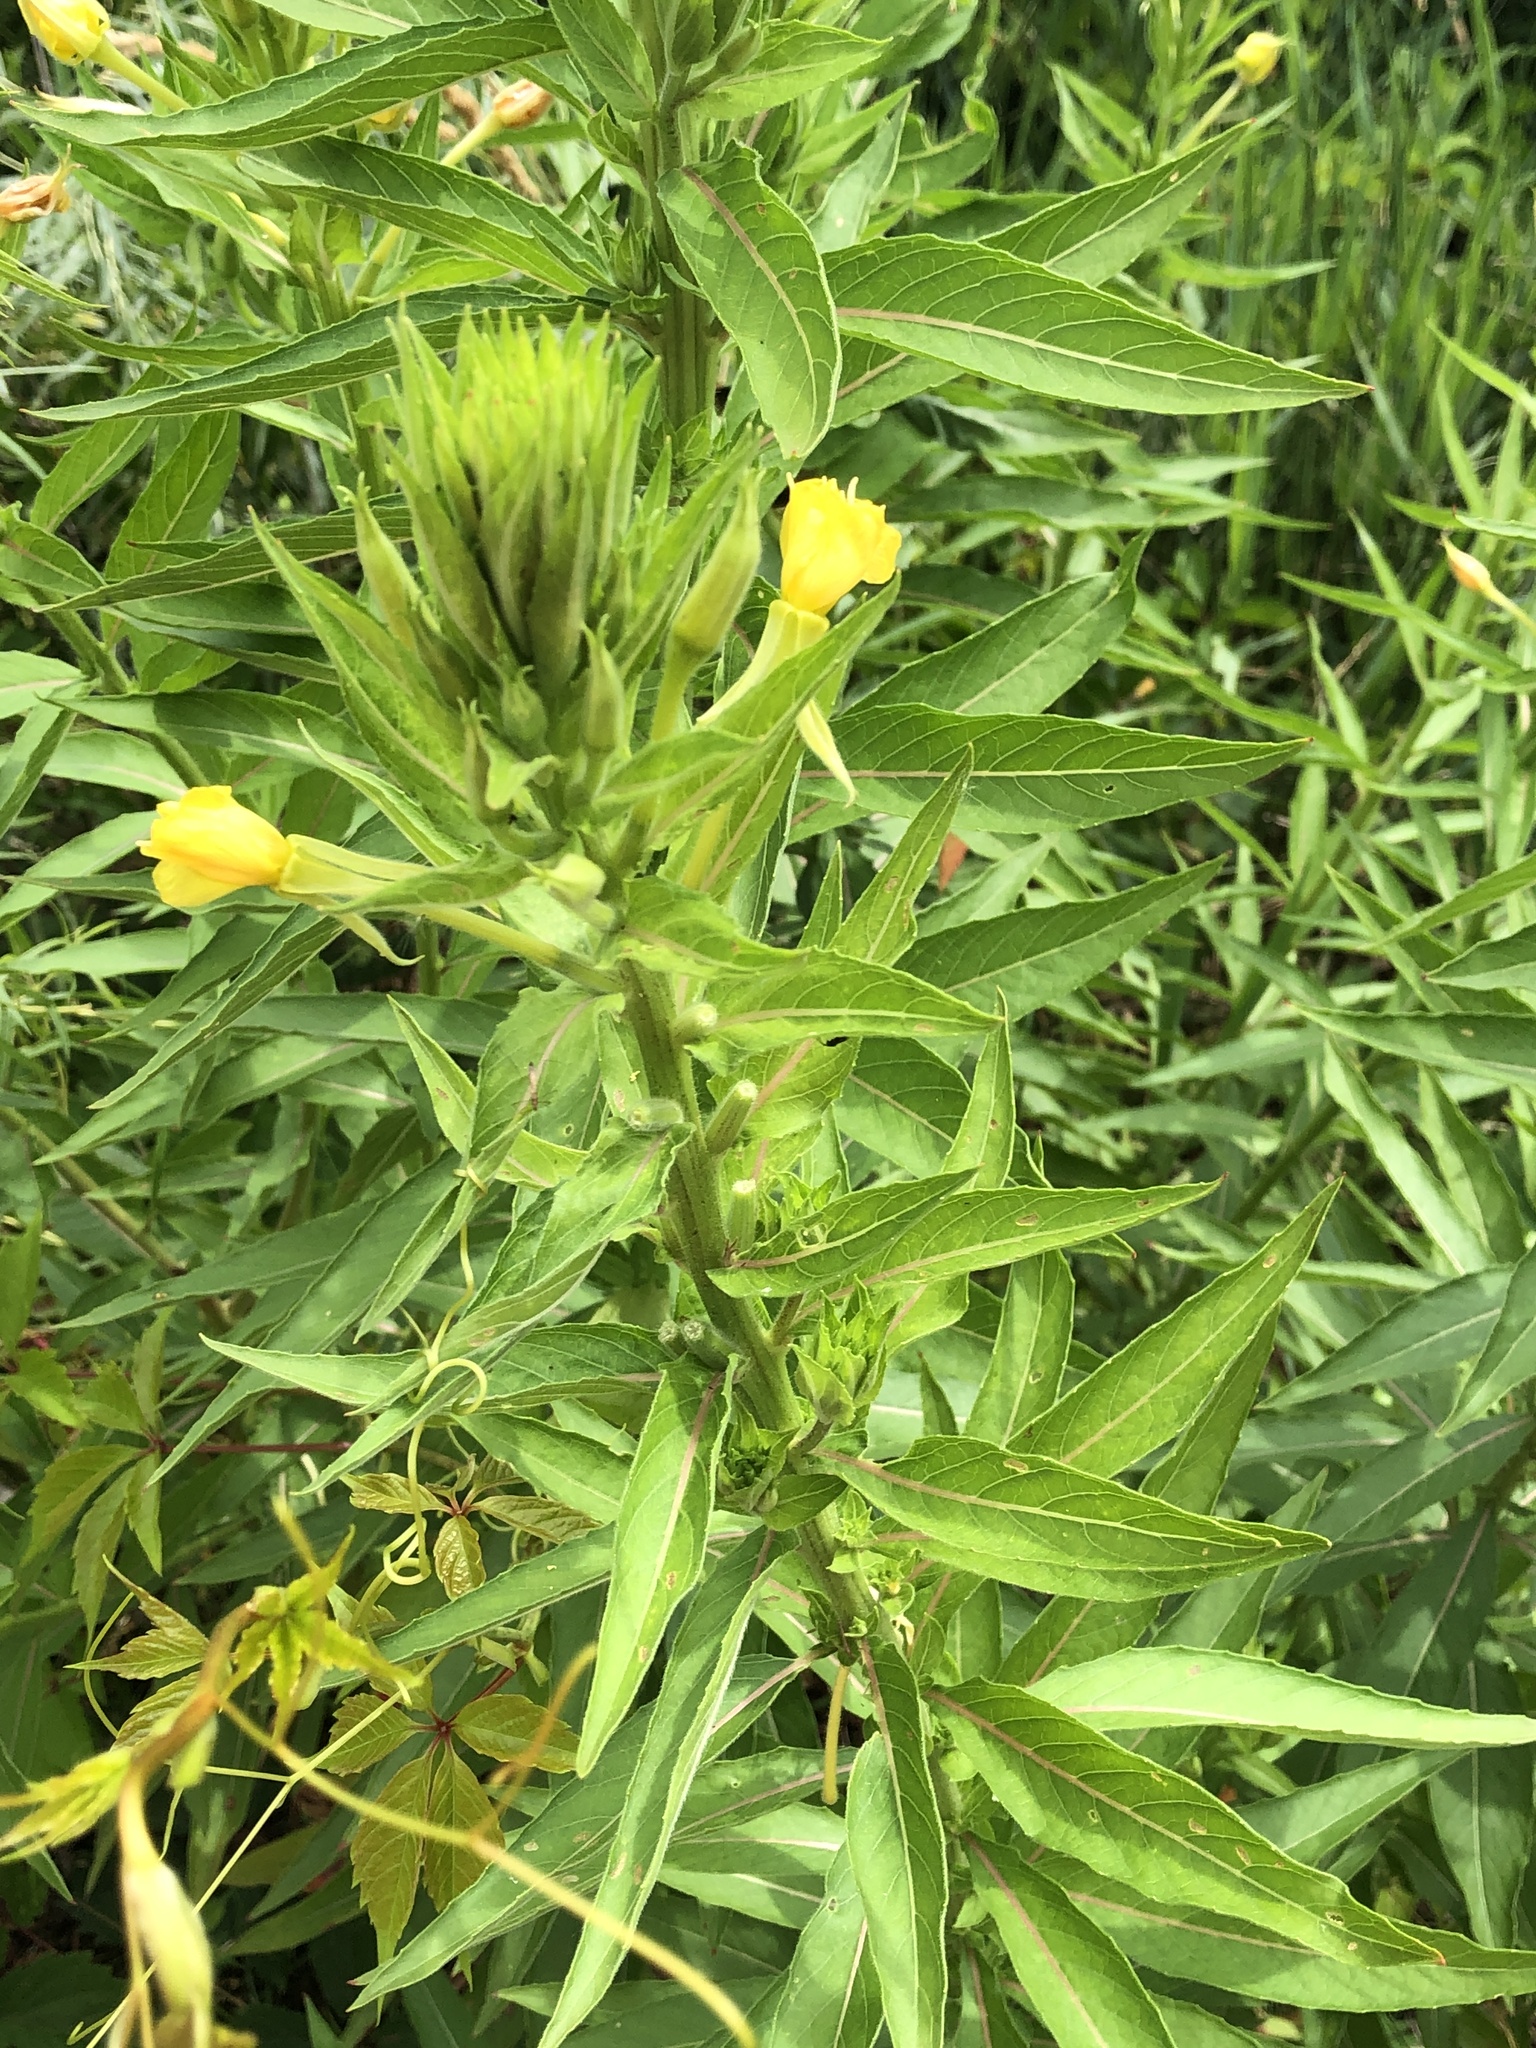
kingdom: Plantae
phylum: Tracheophyta
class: Magnoliopsida
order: Myrtales
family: Onagraceae
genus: Oenothera
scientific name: Oenothera parviflora
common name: Least evening-primrose
